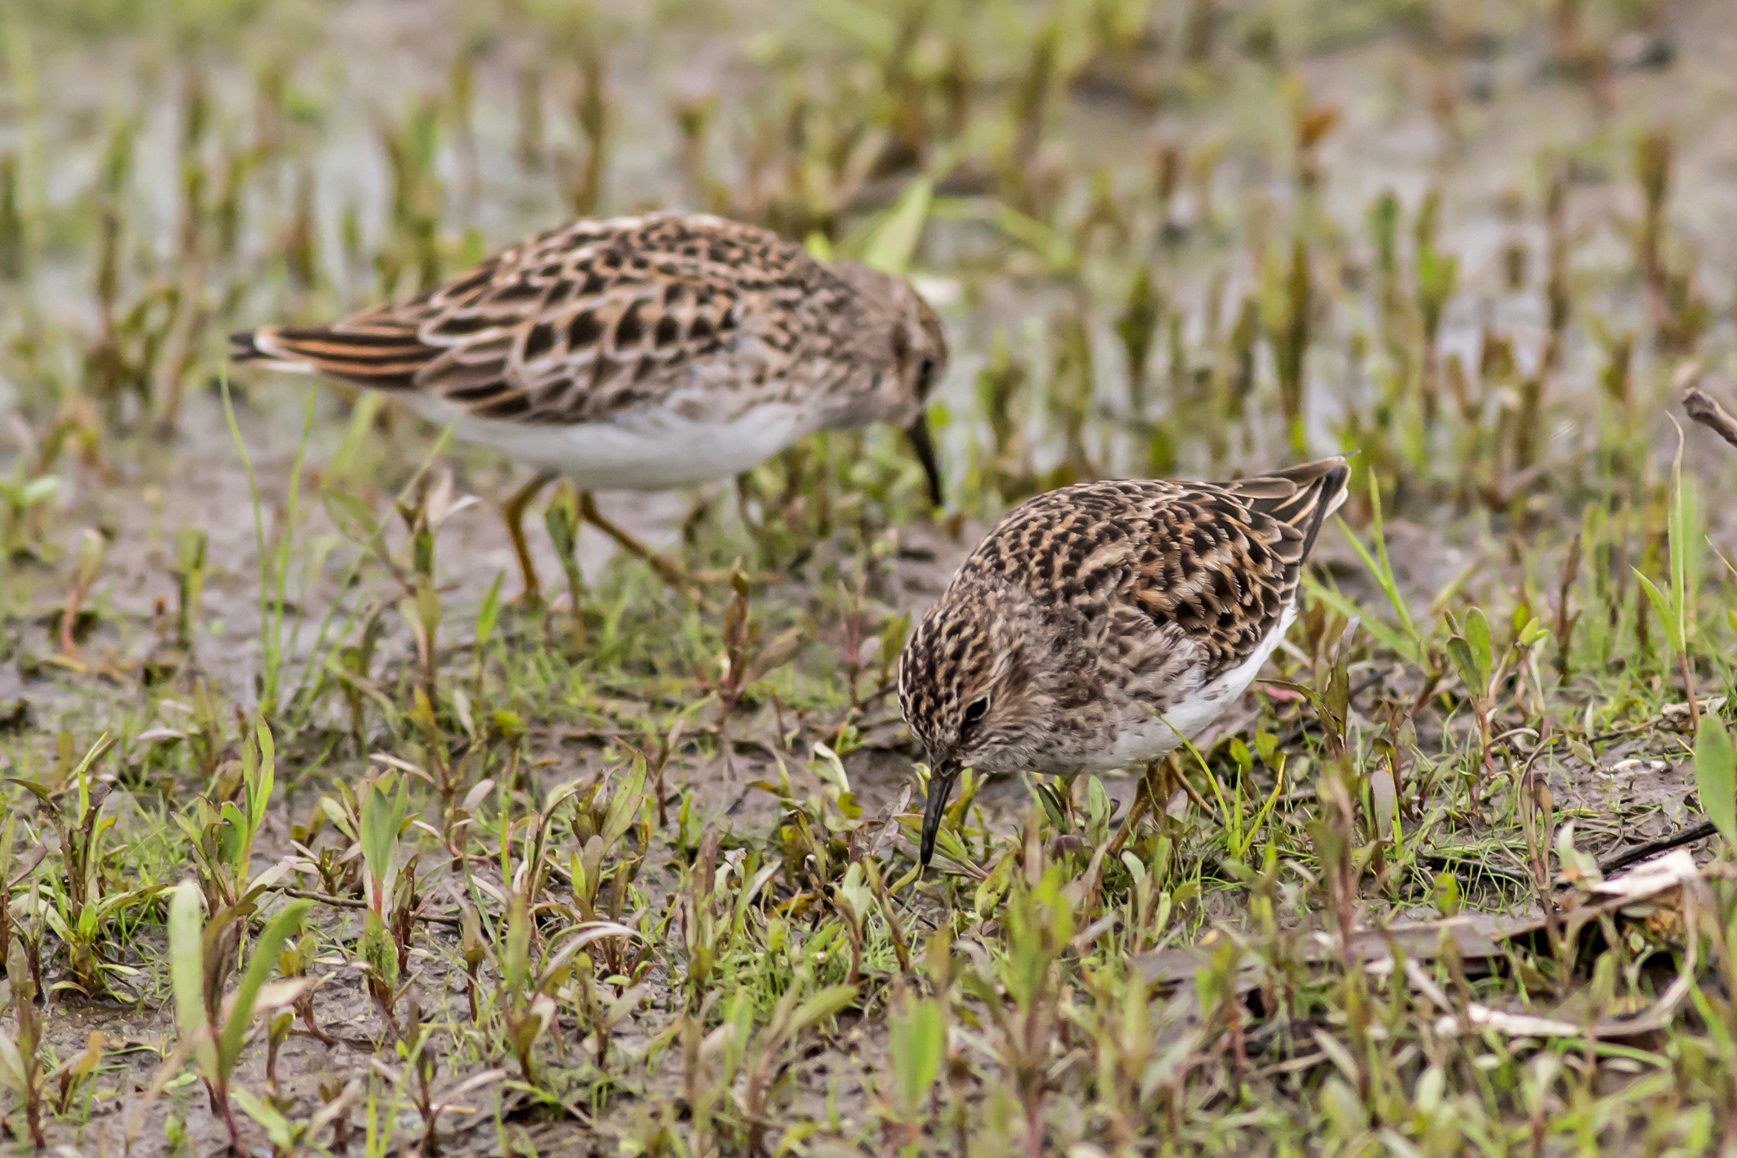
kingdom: Animalia
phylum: Chordata
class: Aves
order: Charadriiformes
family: Scolopacidae
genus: Calidris
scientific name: Calidris minutilla
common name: Least sandpiper
